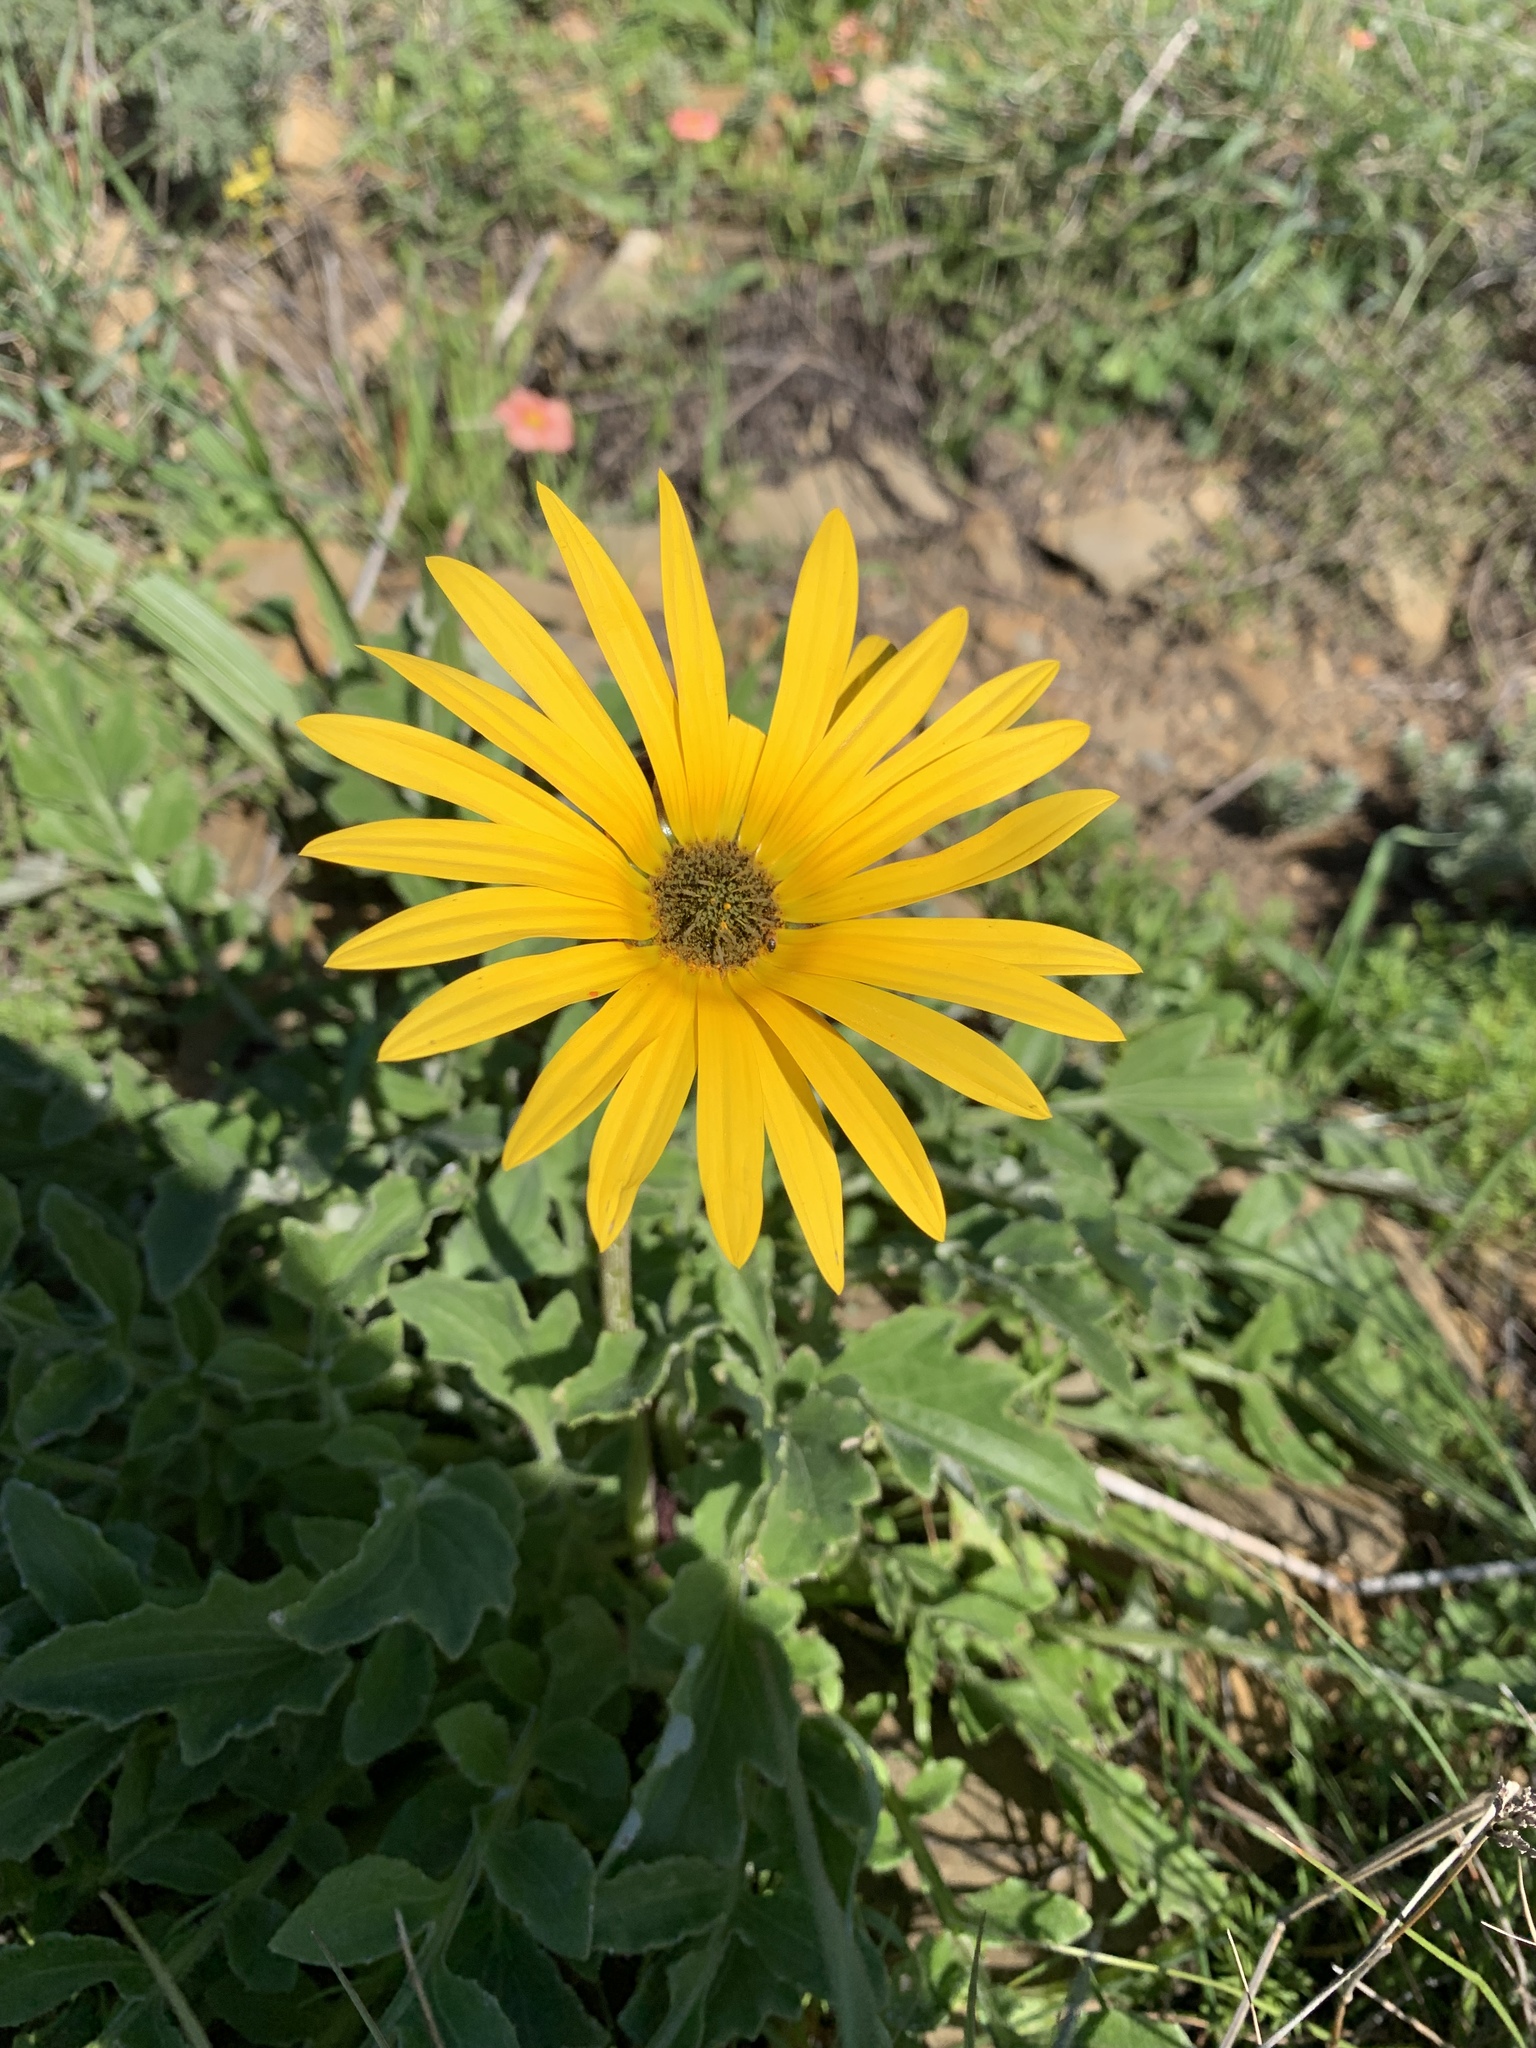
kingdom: Plantae
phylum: Tracheophyta
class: Magnoliopsida
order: Asterales
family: Asteraceae
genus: Arctotis
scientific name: Arctotis hirsuta
